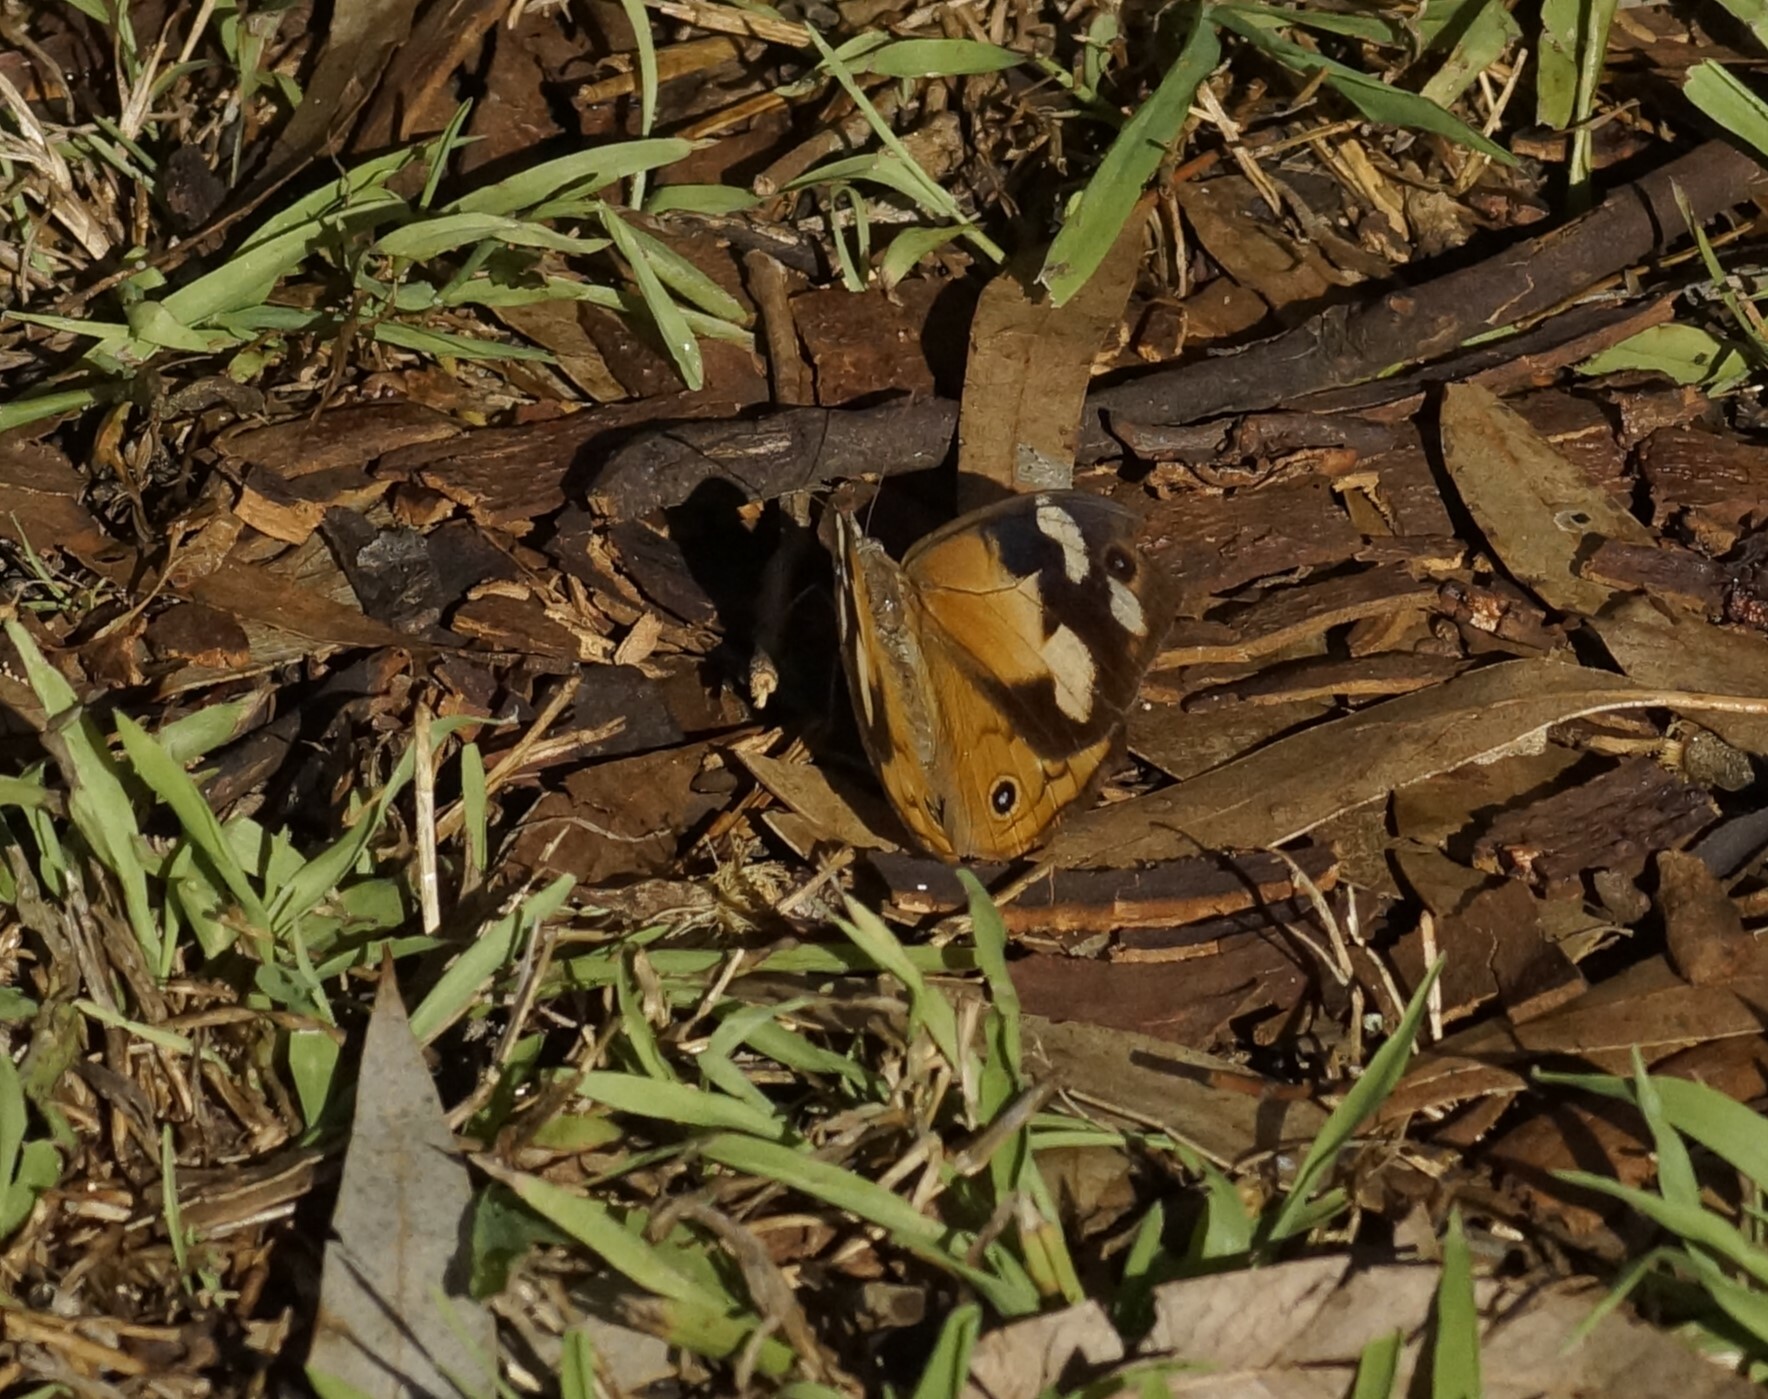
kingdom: Animalia
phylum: Arthropoda
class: Insecta
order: Lepidoptera
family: Nymphalidae
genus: Heteronympha
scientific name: Heteronympha merope
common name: Common brown
